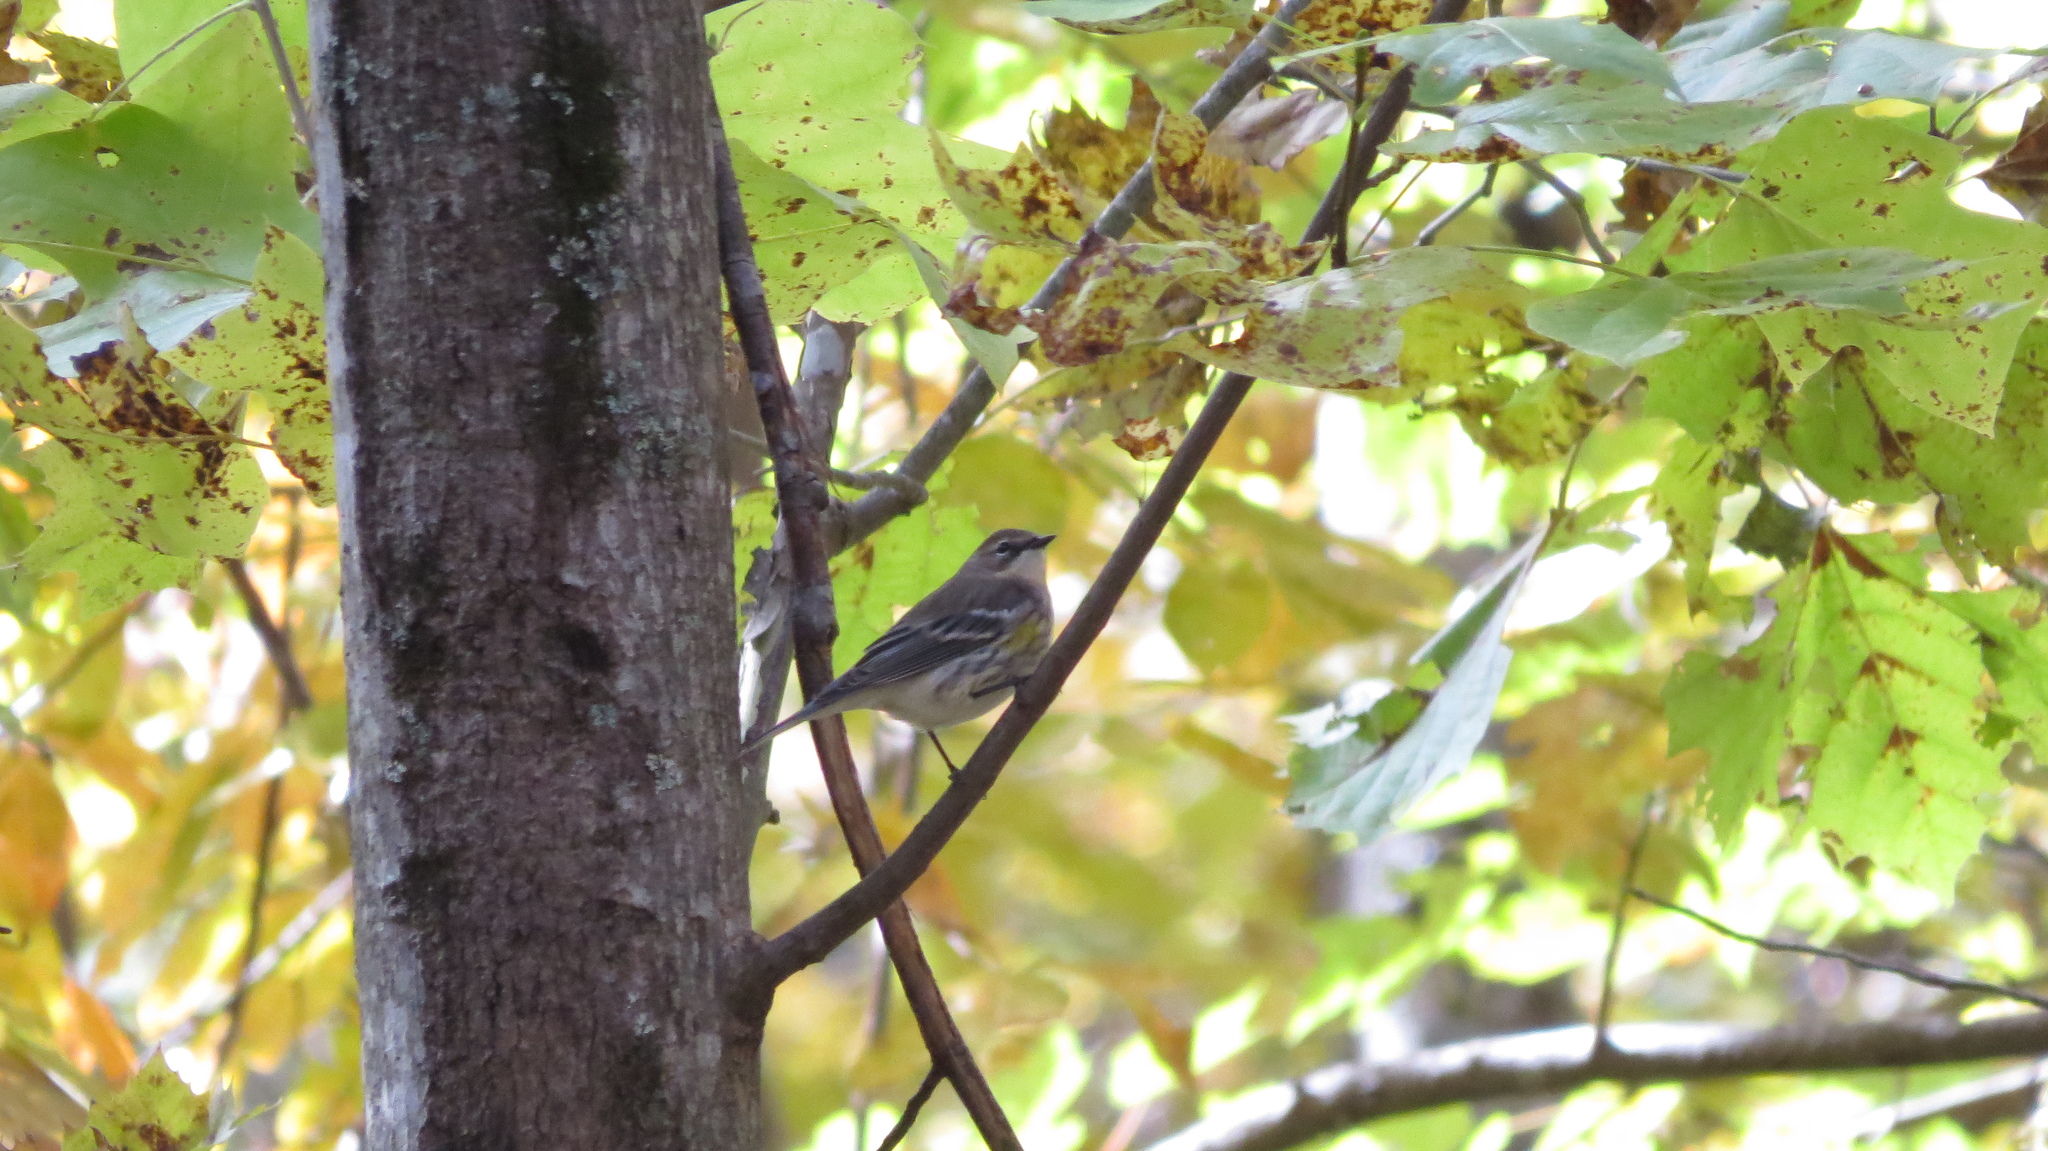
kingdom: Animalia
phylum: Chordata
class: Aves
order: Passeriformes
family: Parulidae
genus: Setophaga
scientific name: Setophaga coronata
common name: Myrtle warbler
